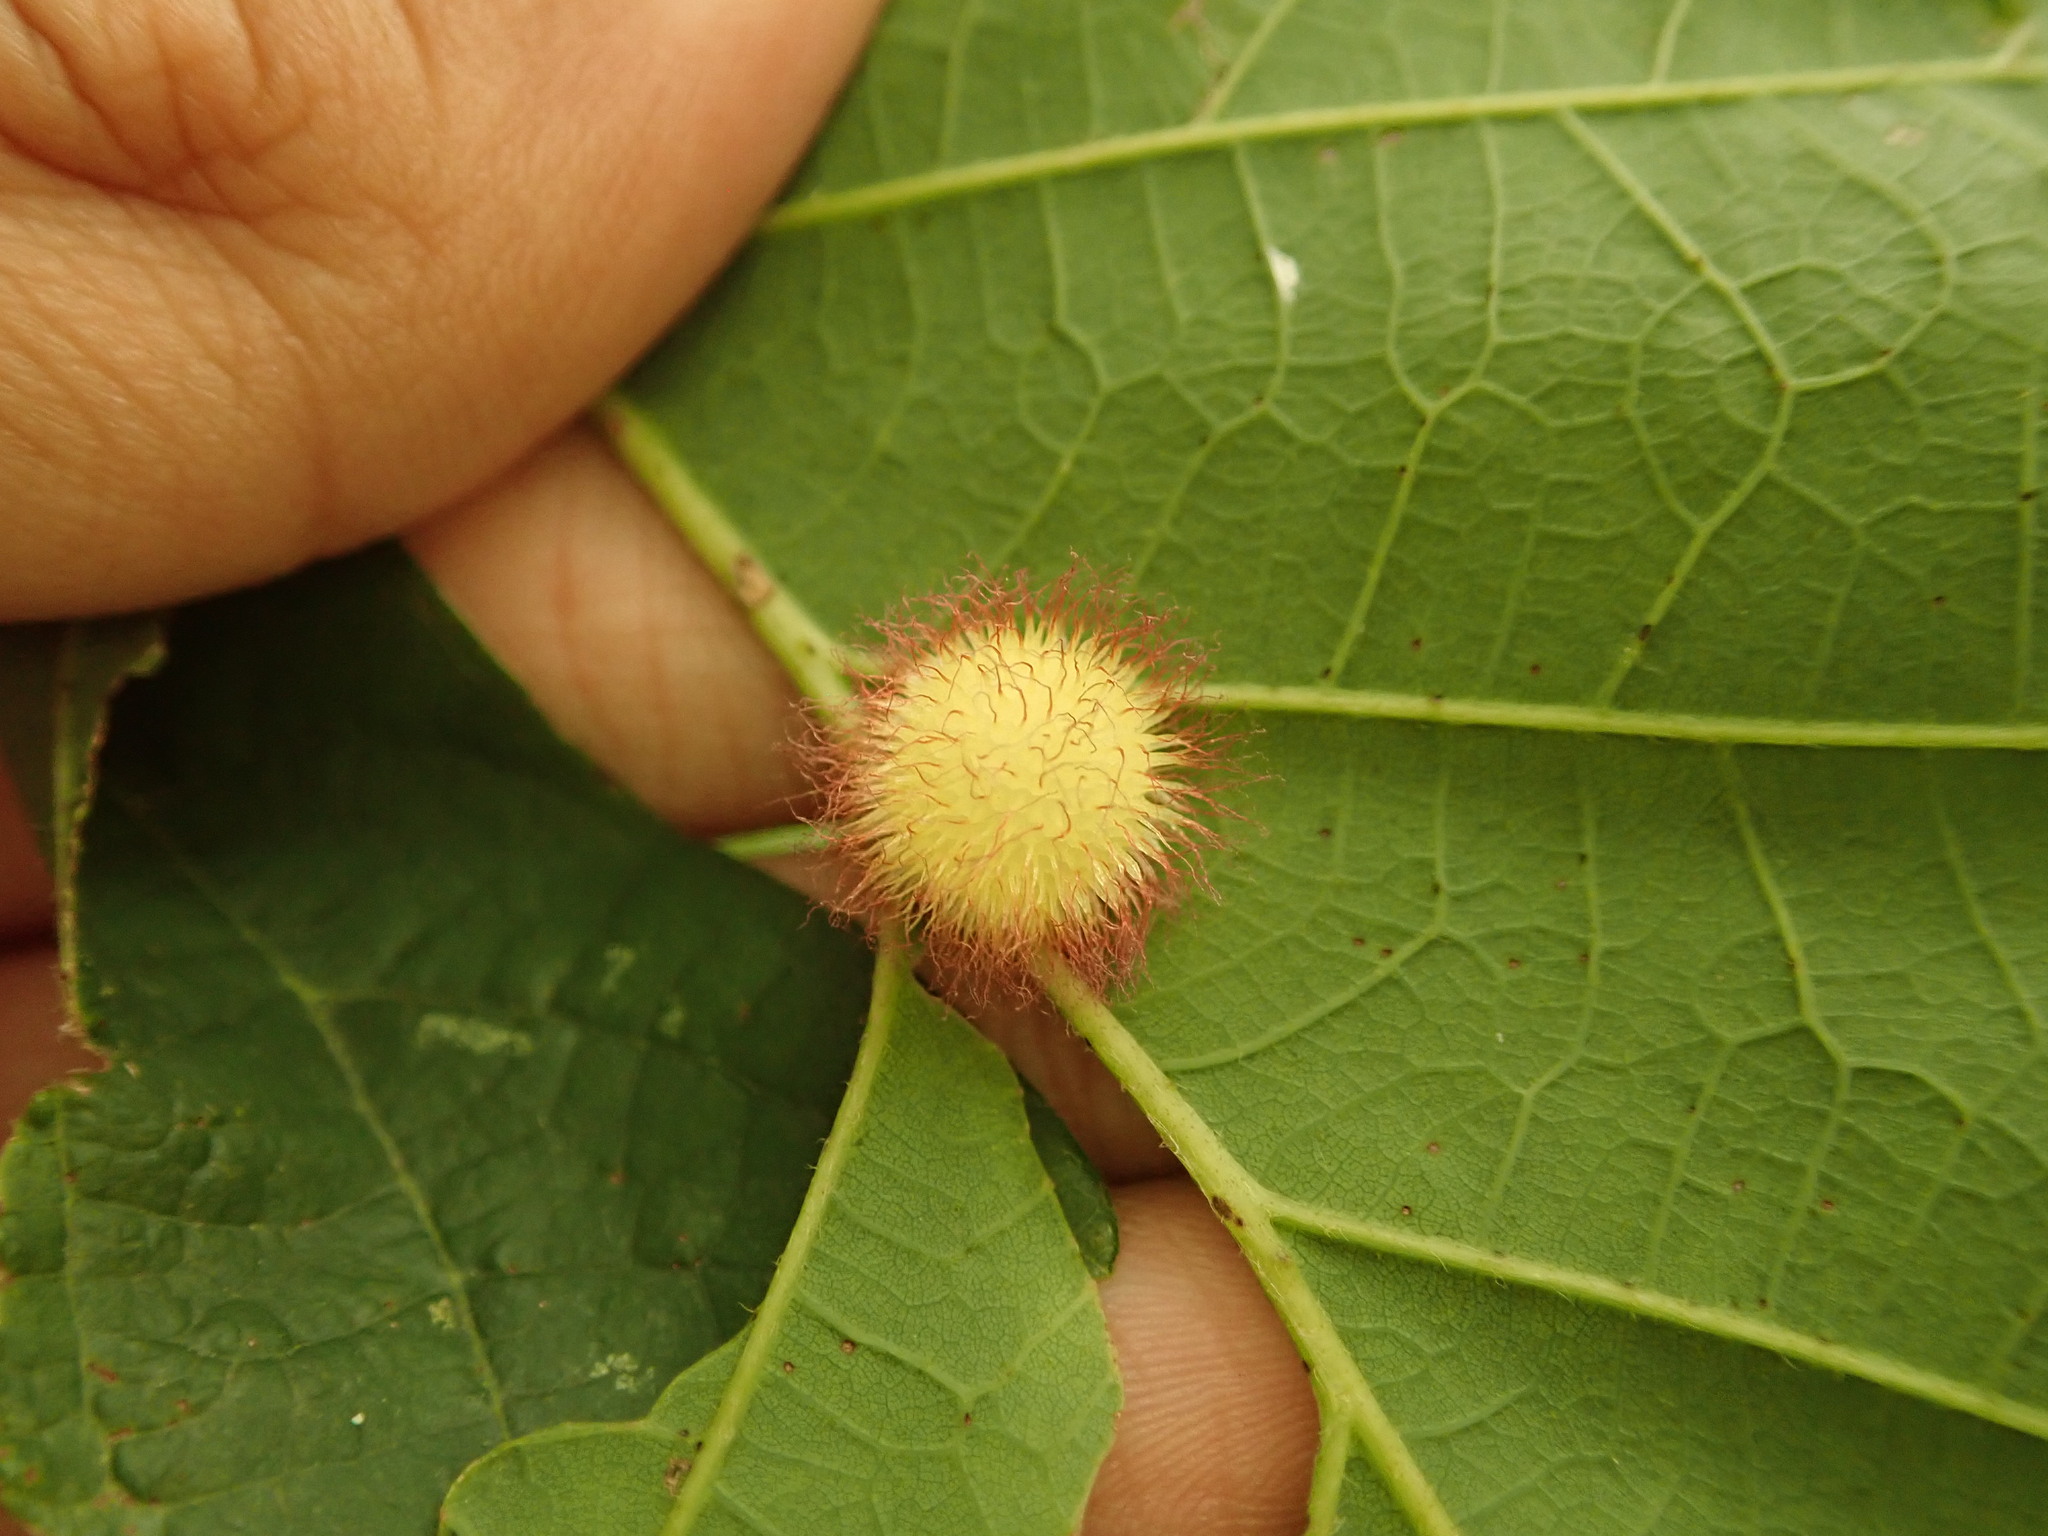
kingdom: Animalia
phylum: Arthropoda
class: Insecta
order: Hymenoptera
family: Cynipidae
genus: Acraspis
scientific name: Acraspis villosa
